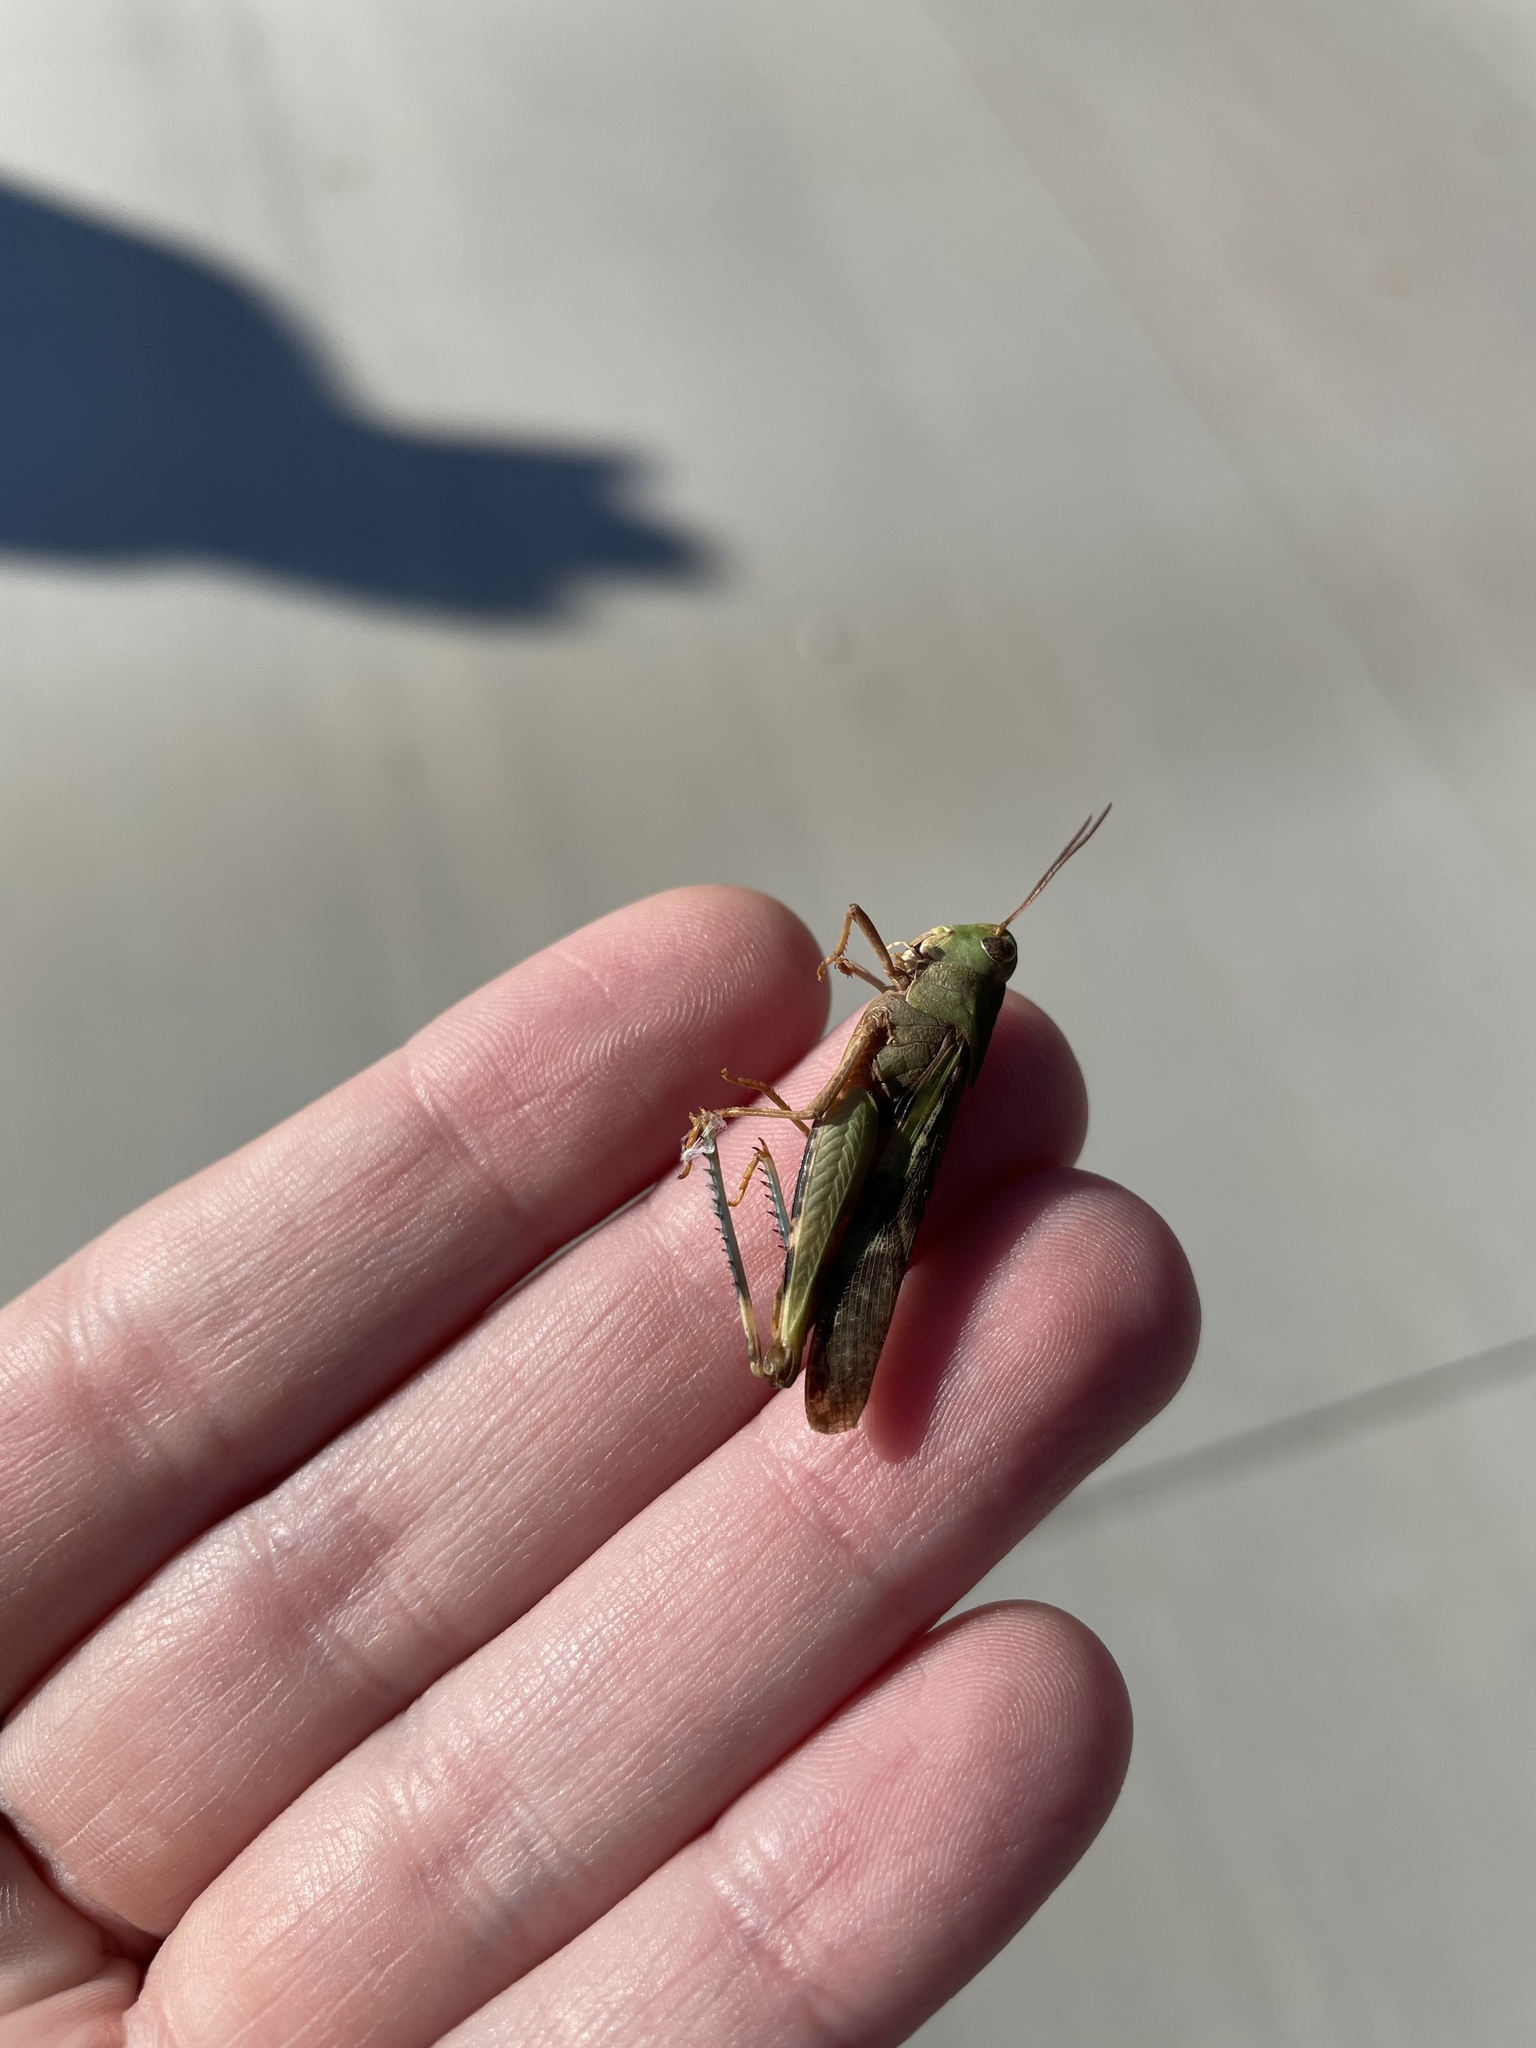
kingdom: Animalia
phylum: Arthropoda
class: Insecta
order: Orthoptera
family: Acrididae
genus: Chortophaga
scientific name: Chortophaga viridifasciata
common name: Green-striped grasshopper
